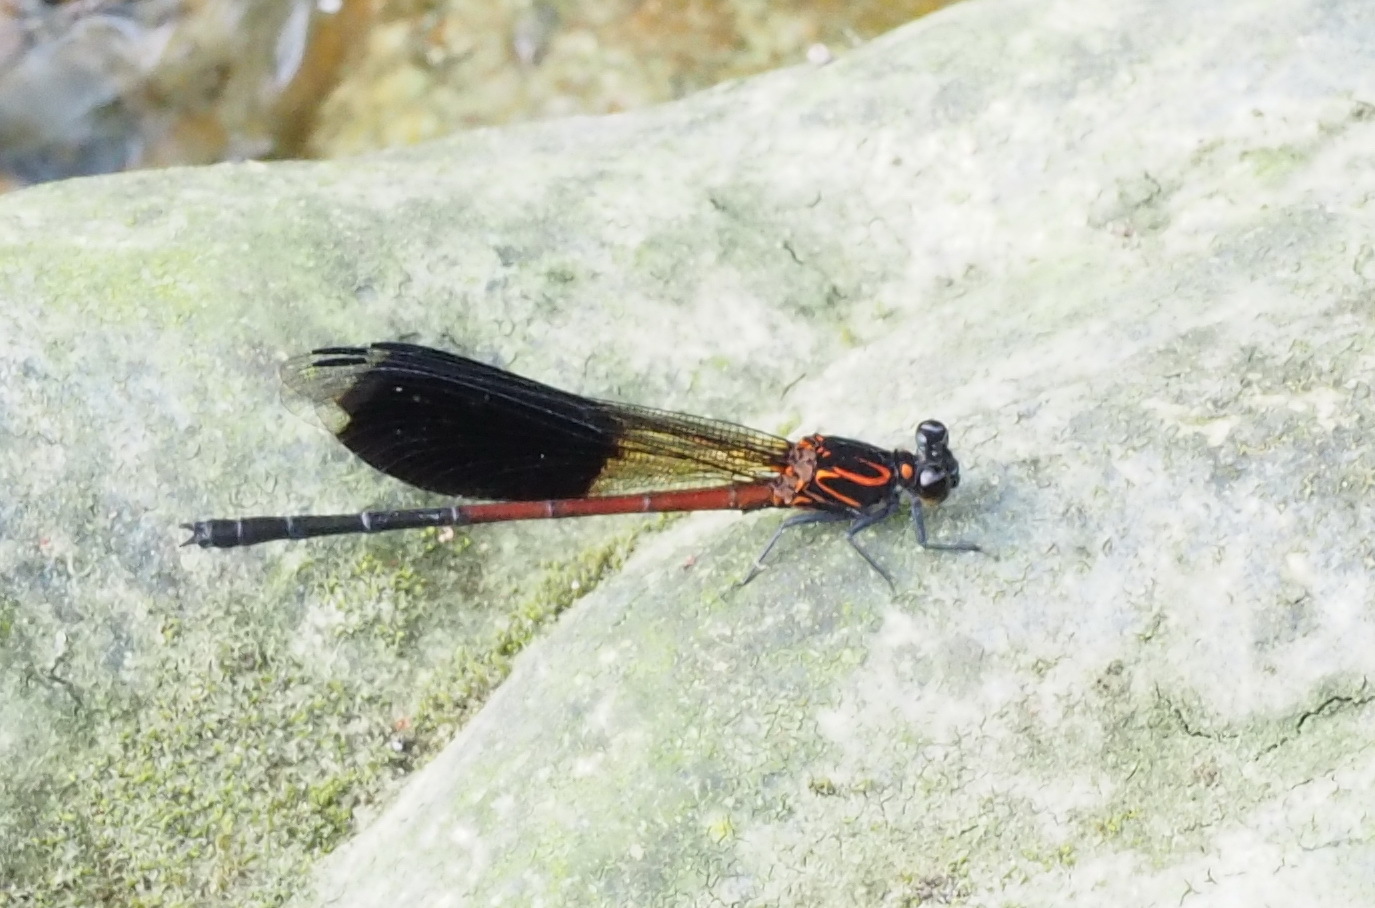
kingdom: Animalia
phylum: Arthropoda
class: Insecta
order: Odonata
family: Euphaeidae
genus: Euphaea
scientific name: Euphaea formosa
